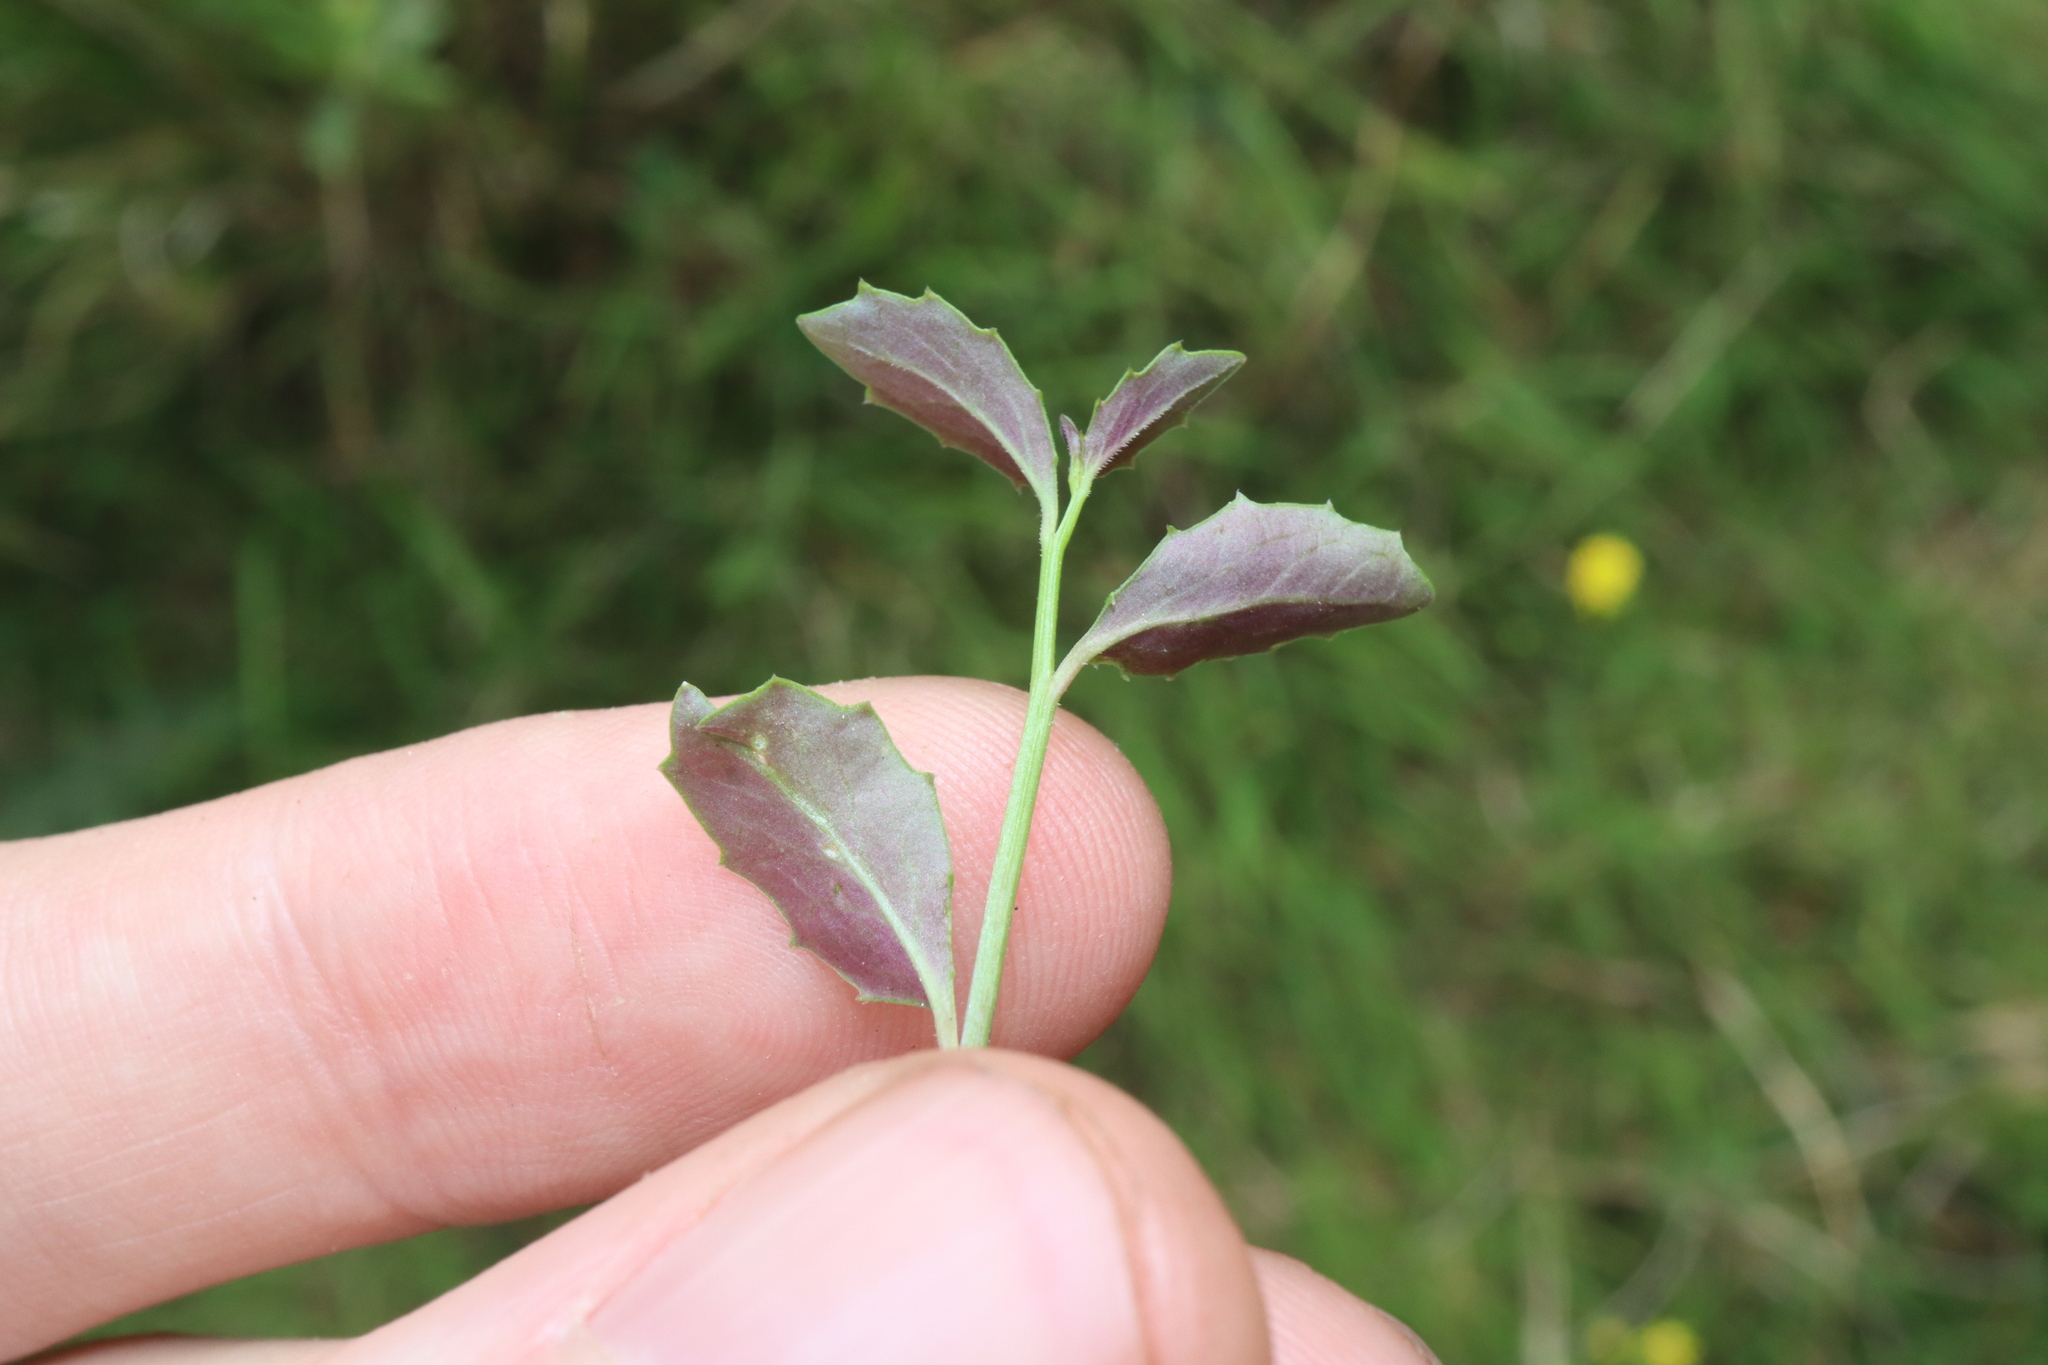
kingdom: Plantae
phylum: Tracheophyta
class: Magnoliopsida
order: Asterales
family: Campanulaceae
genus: Lobelia
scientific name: Lobelia purpurascens
